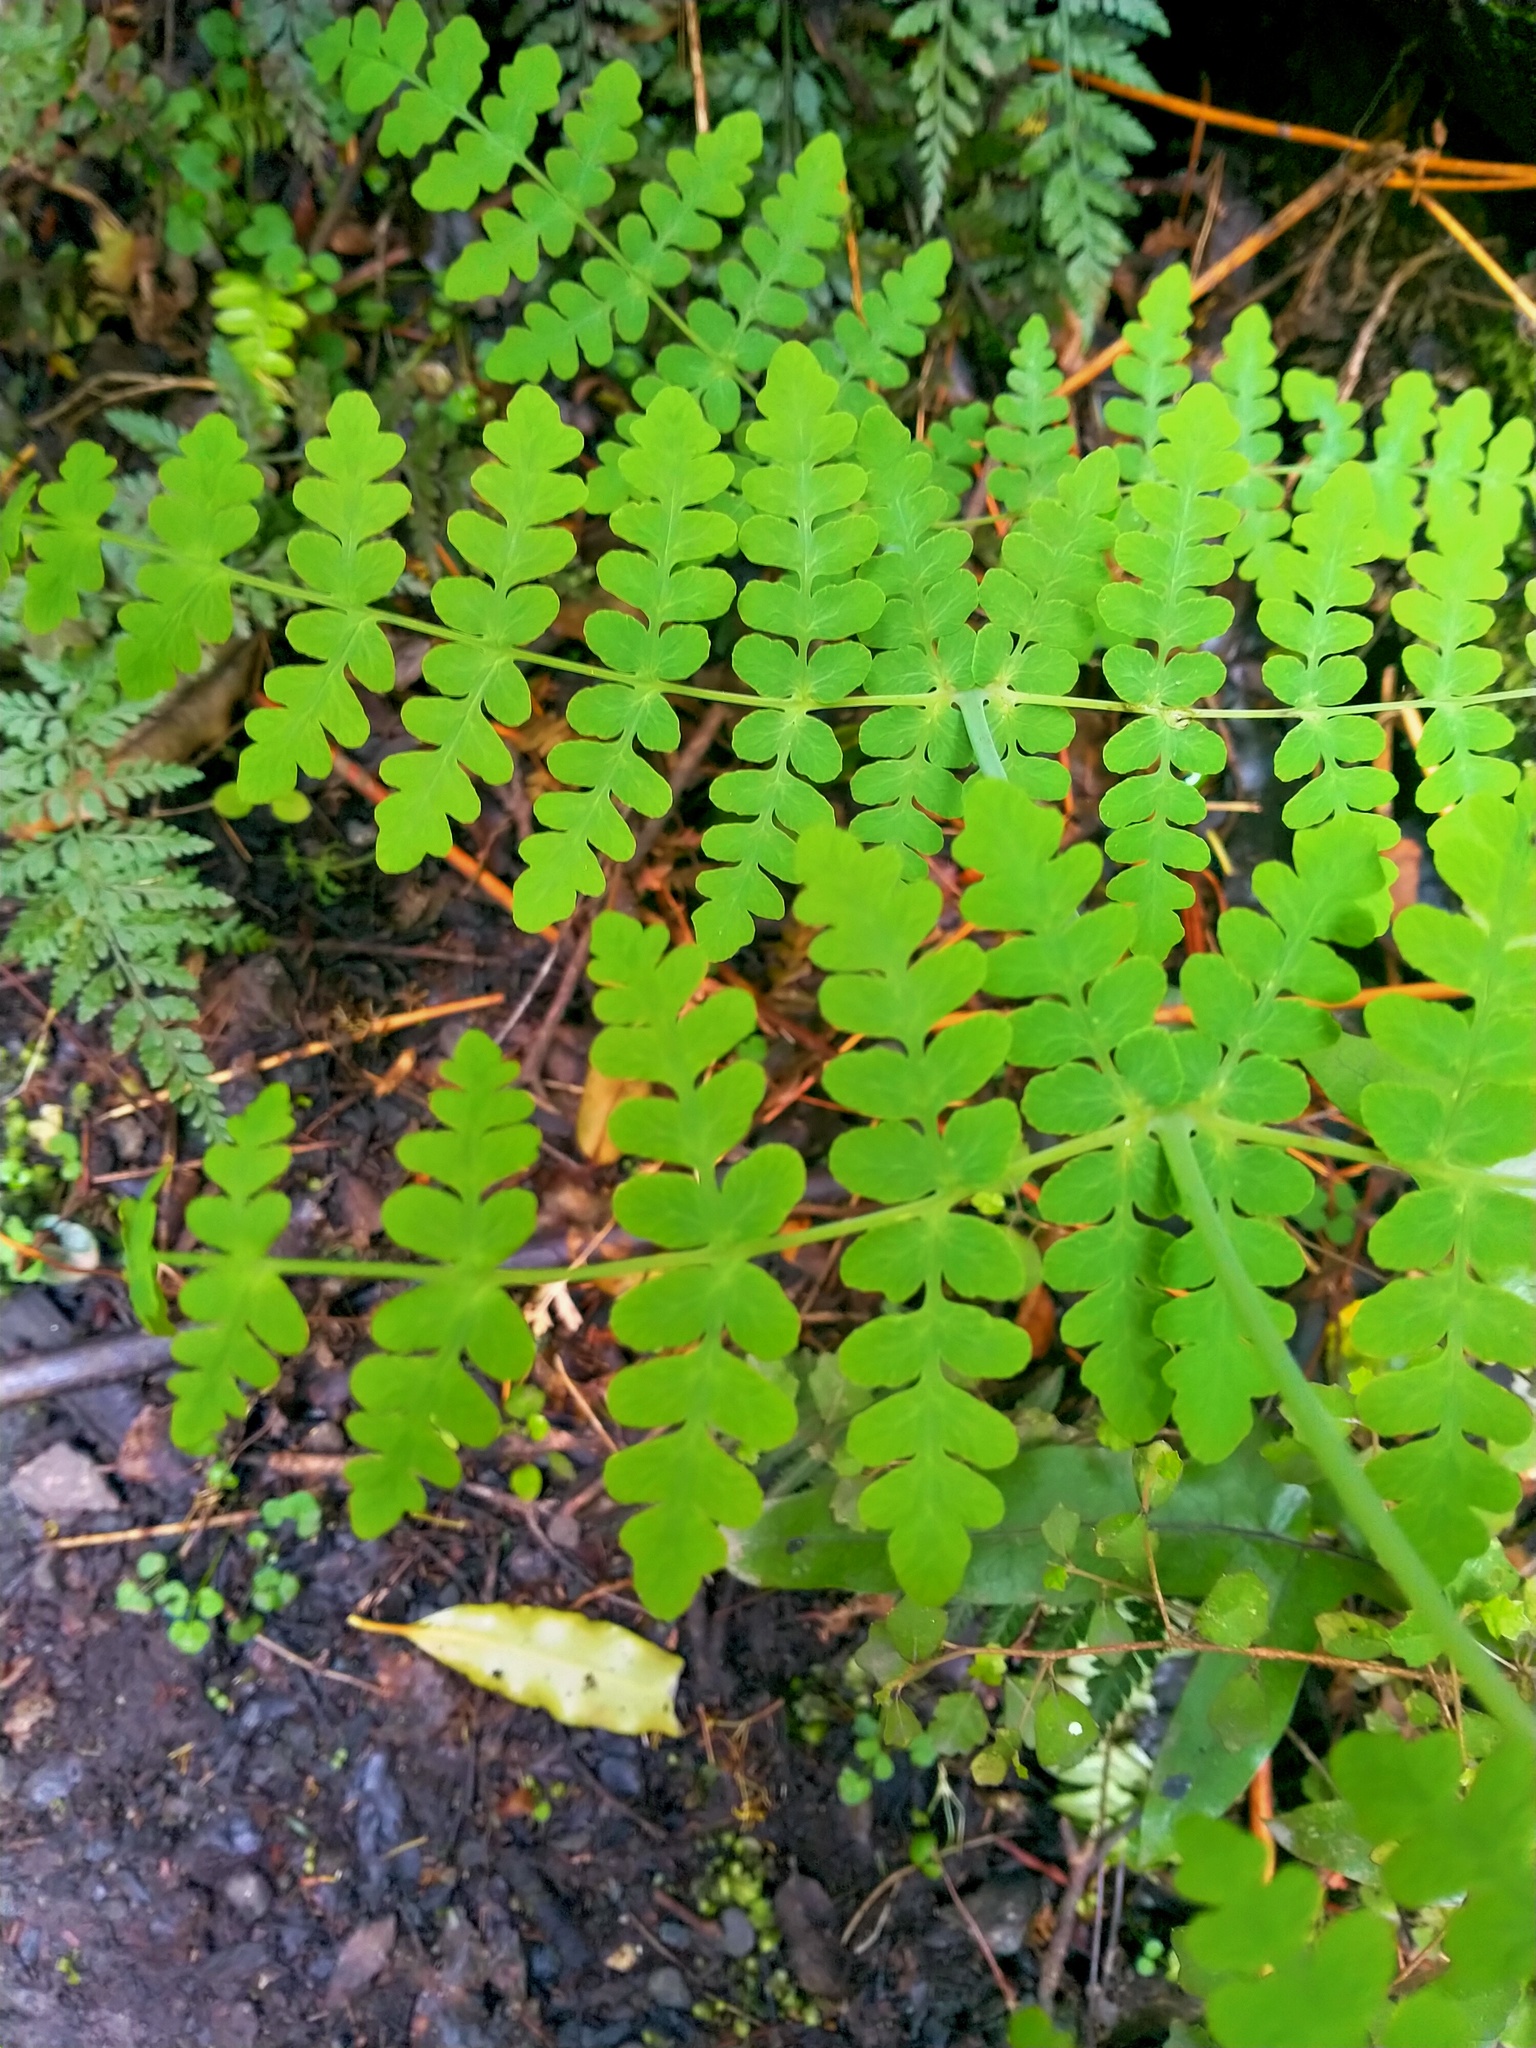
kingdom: Plantae
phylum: Tracheophyta
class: Polypodiopsida
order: Polypodiales
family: Dennstaedtiaceae
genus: Histiopteris
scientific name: Histiopteris incisa
